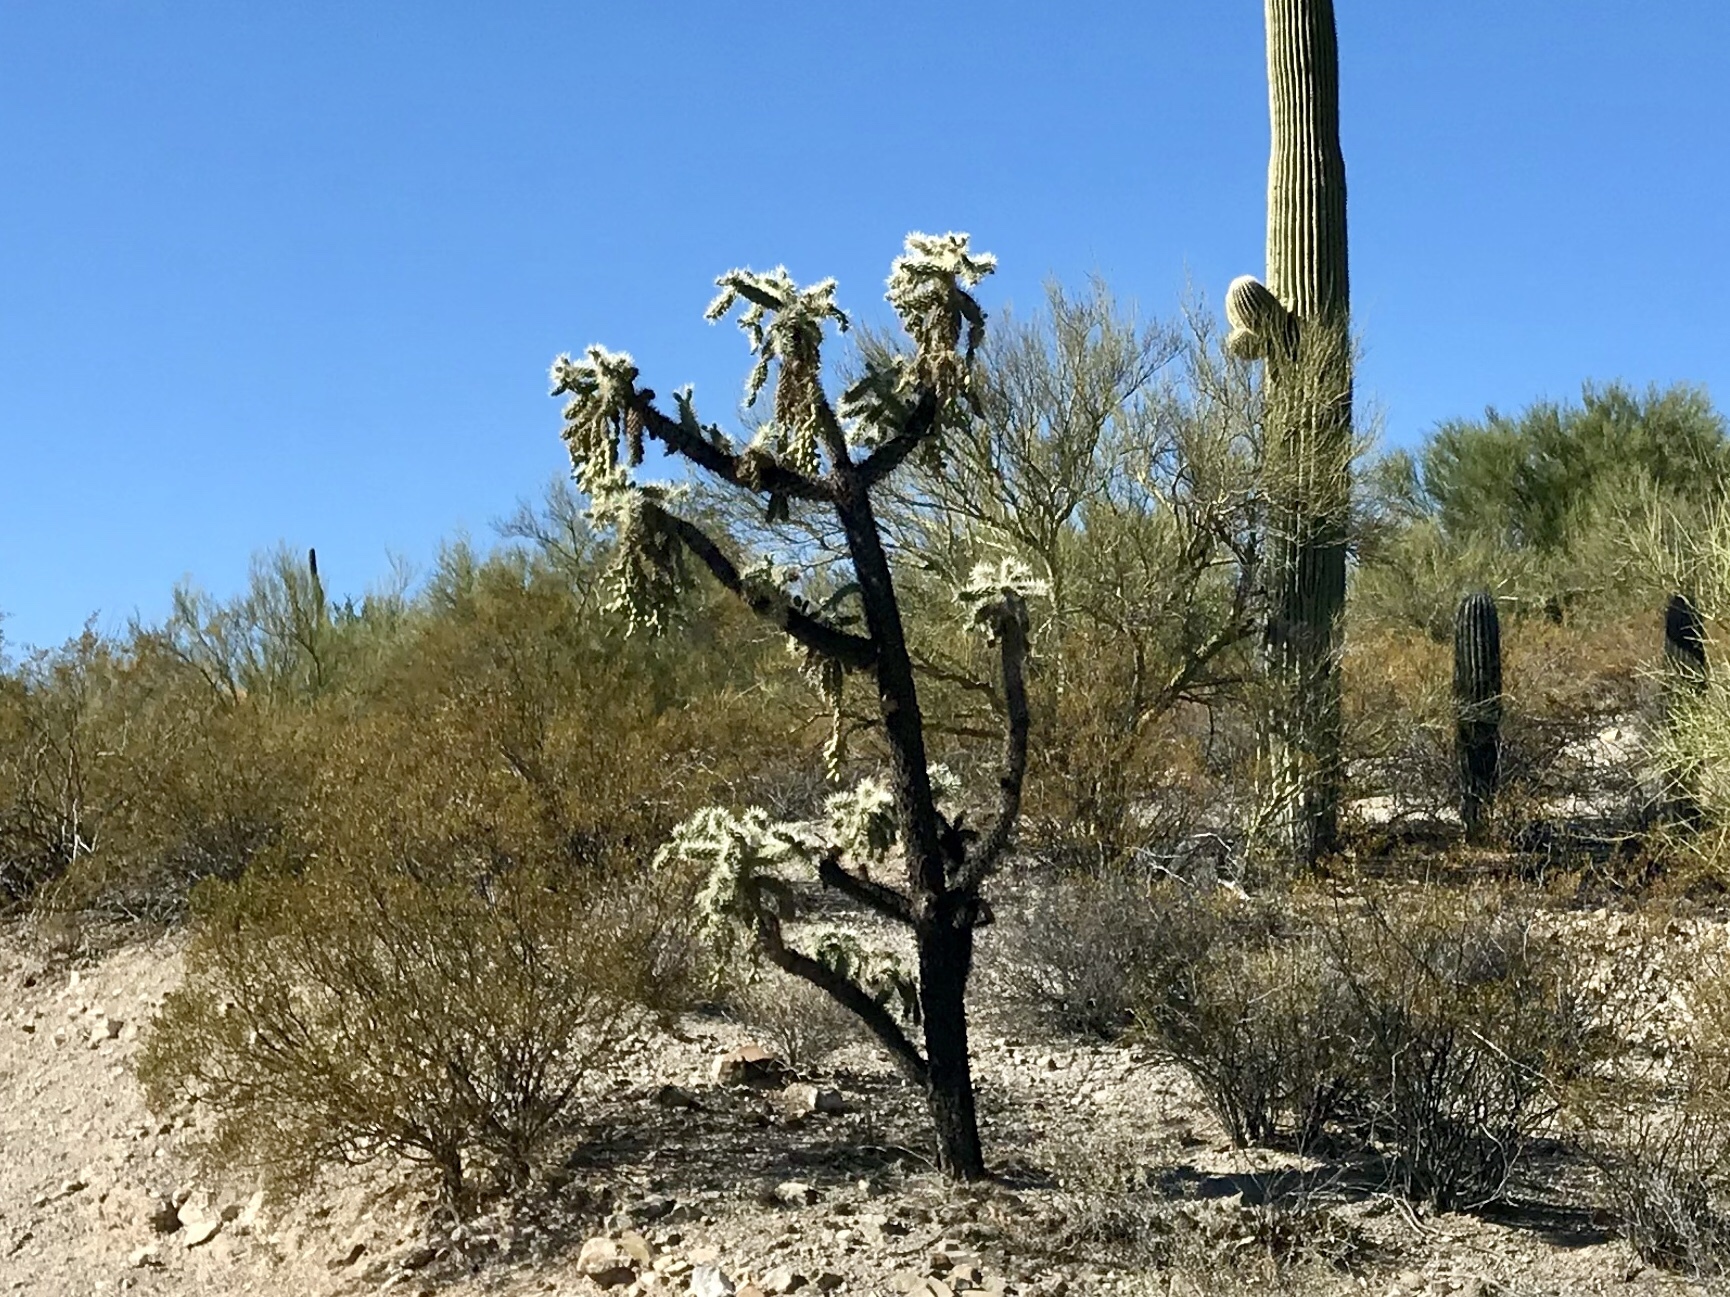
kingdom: Plantae
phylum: Tracheophyta
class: Magnoliopsida
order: Caryophyllales
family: Cactaceae
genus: Cylindropuntia
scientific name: Cylindropuntia fulgida
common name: Jumping cholla
